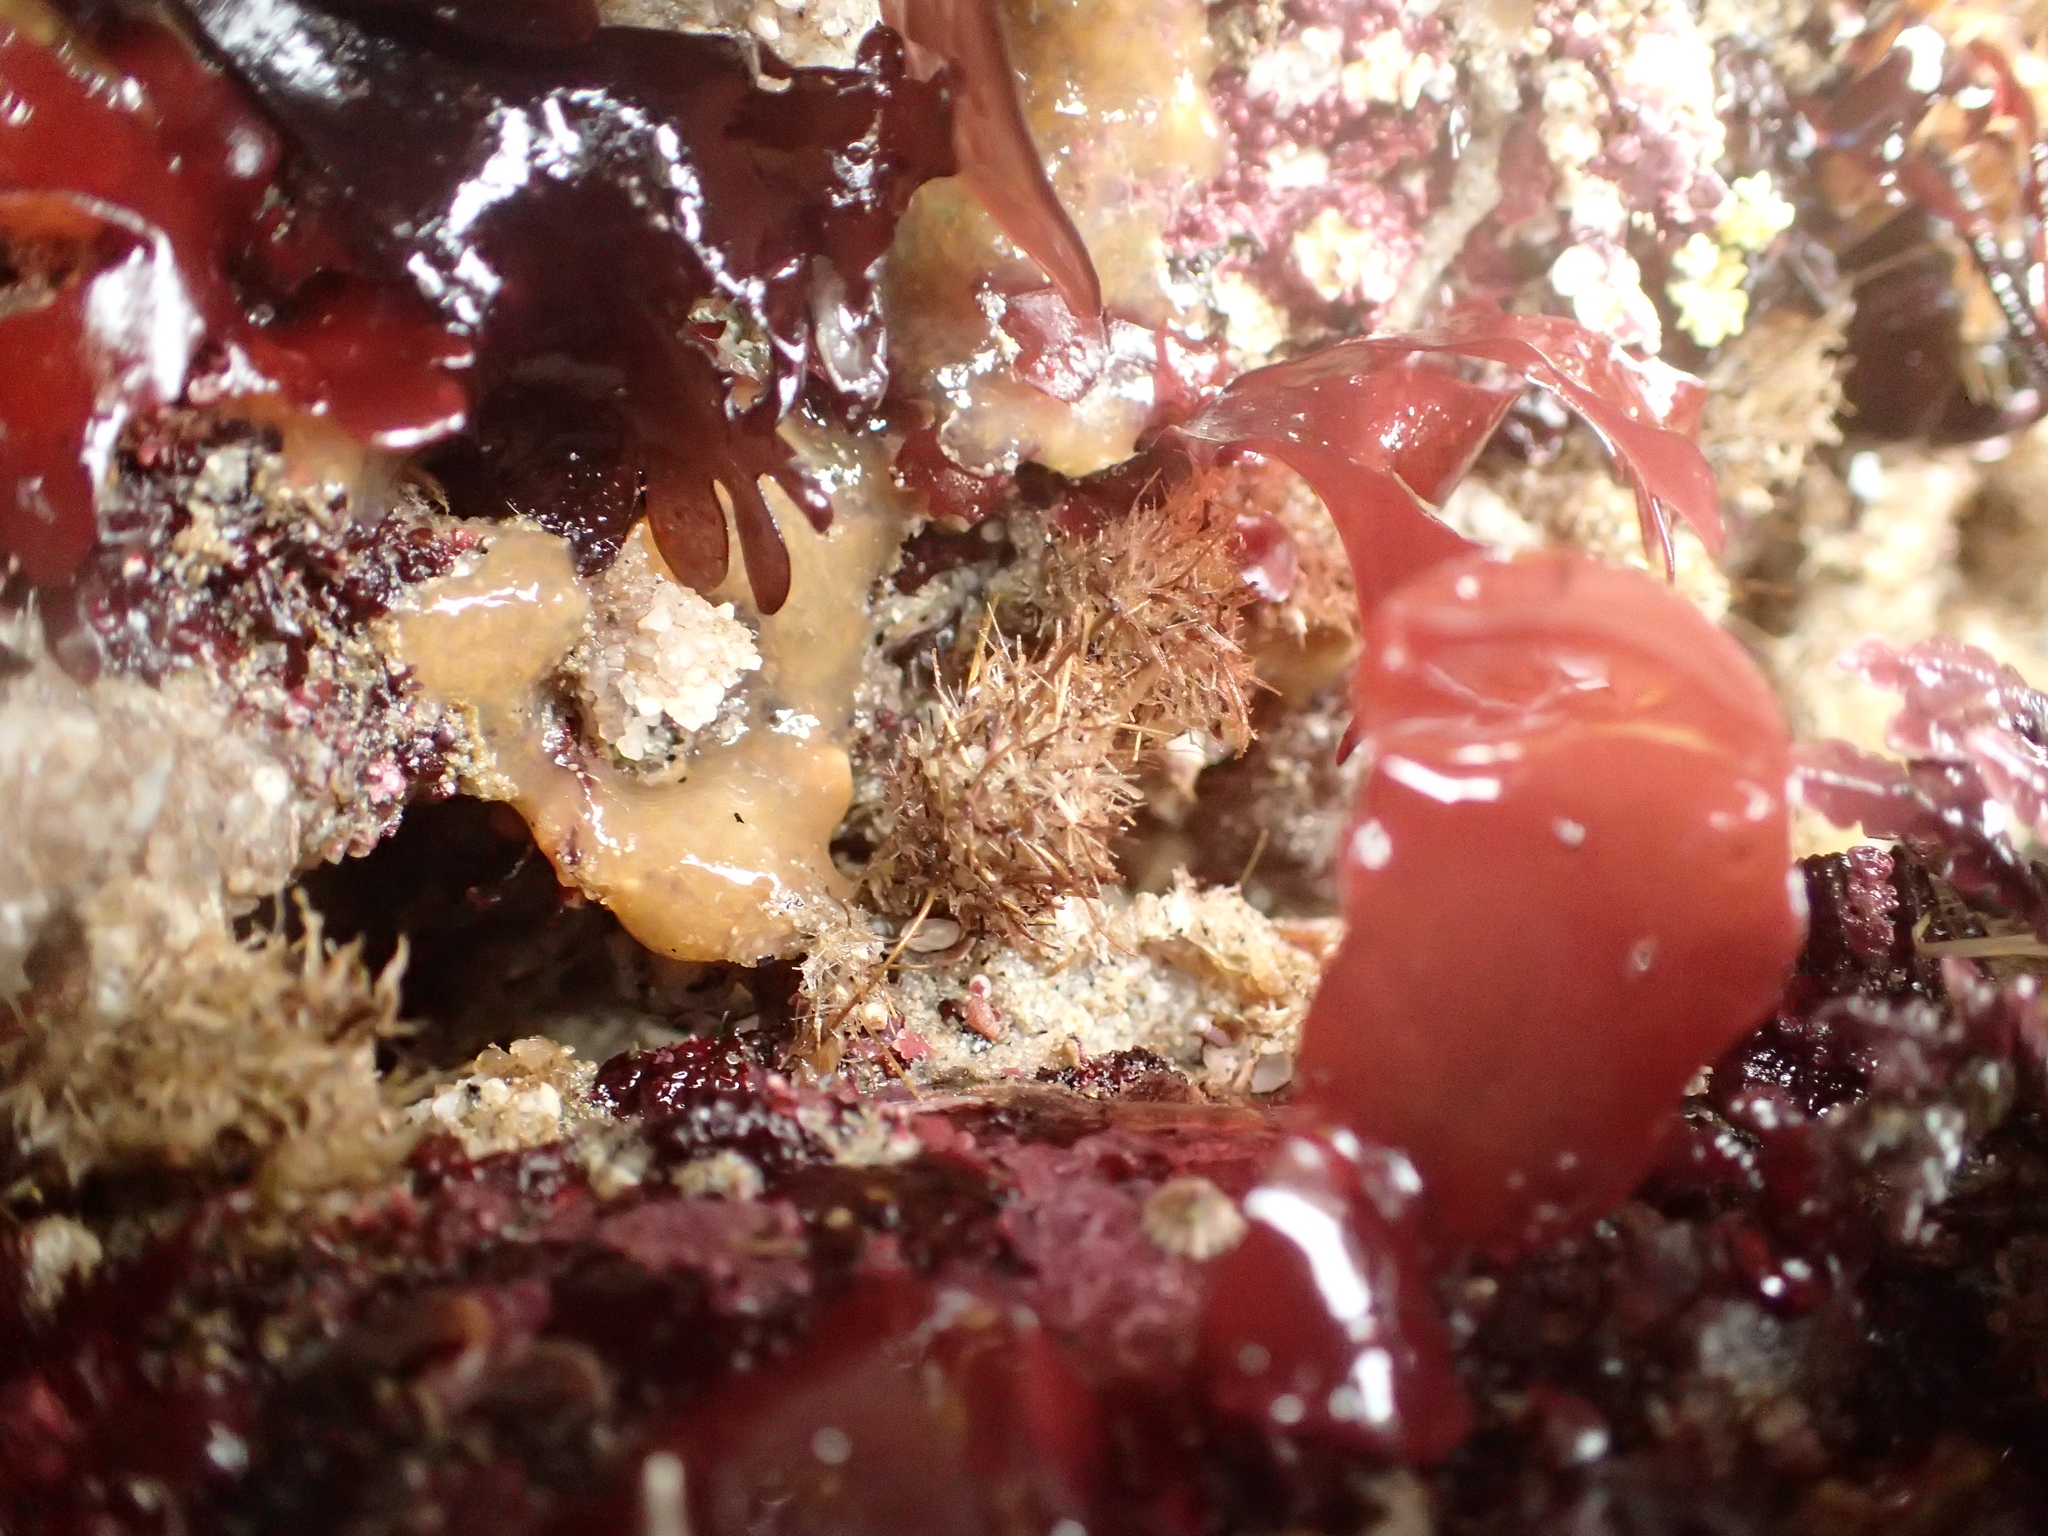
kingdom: Animalia
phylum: Annelida
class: Polychaeta
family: Terebellidae
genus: Pista
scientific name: Pista elongata
